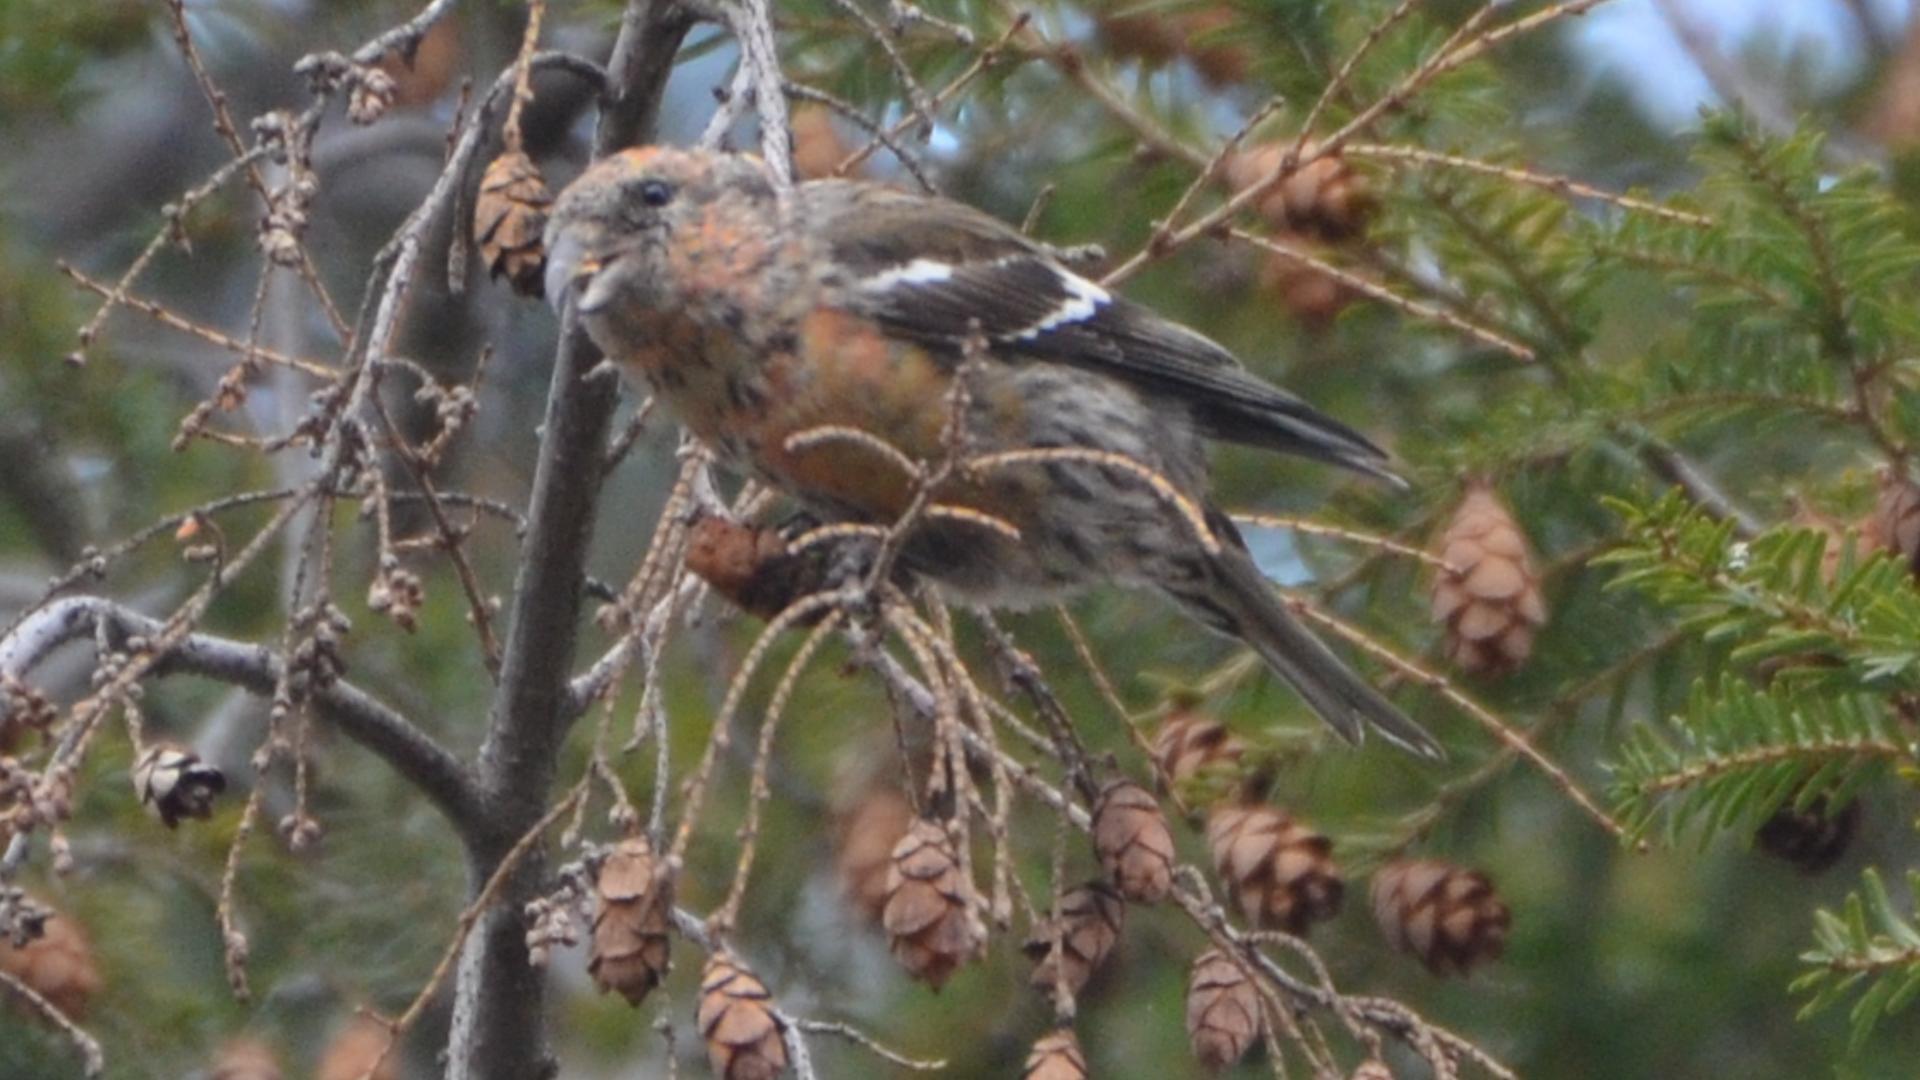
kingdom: Animalia
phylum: Chordata
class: Aves
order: Passeriformes
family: Fringillidae
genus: Loxia
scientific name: Loxia leucoptera
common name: Two-barred crossbill
